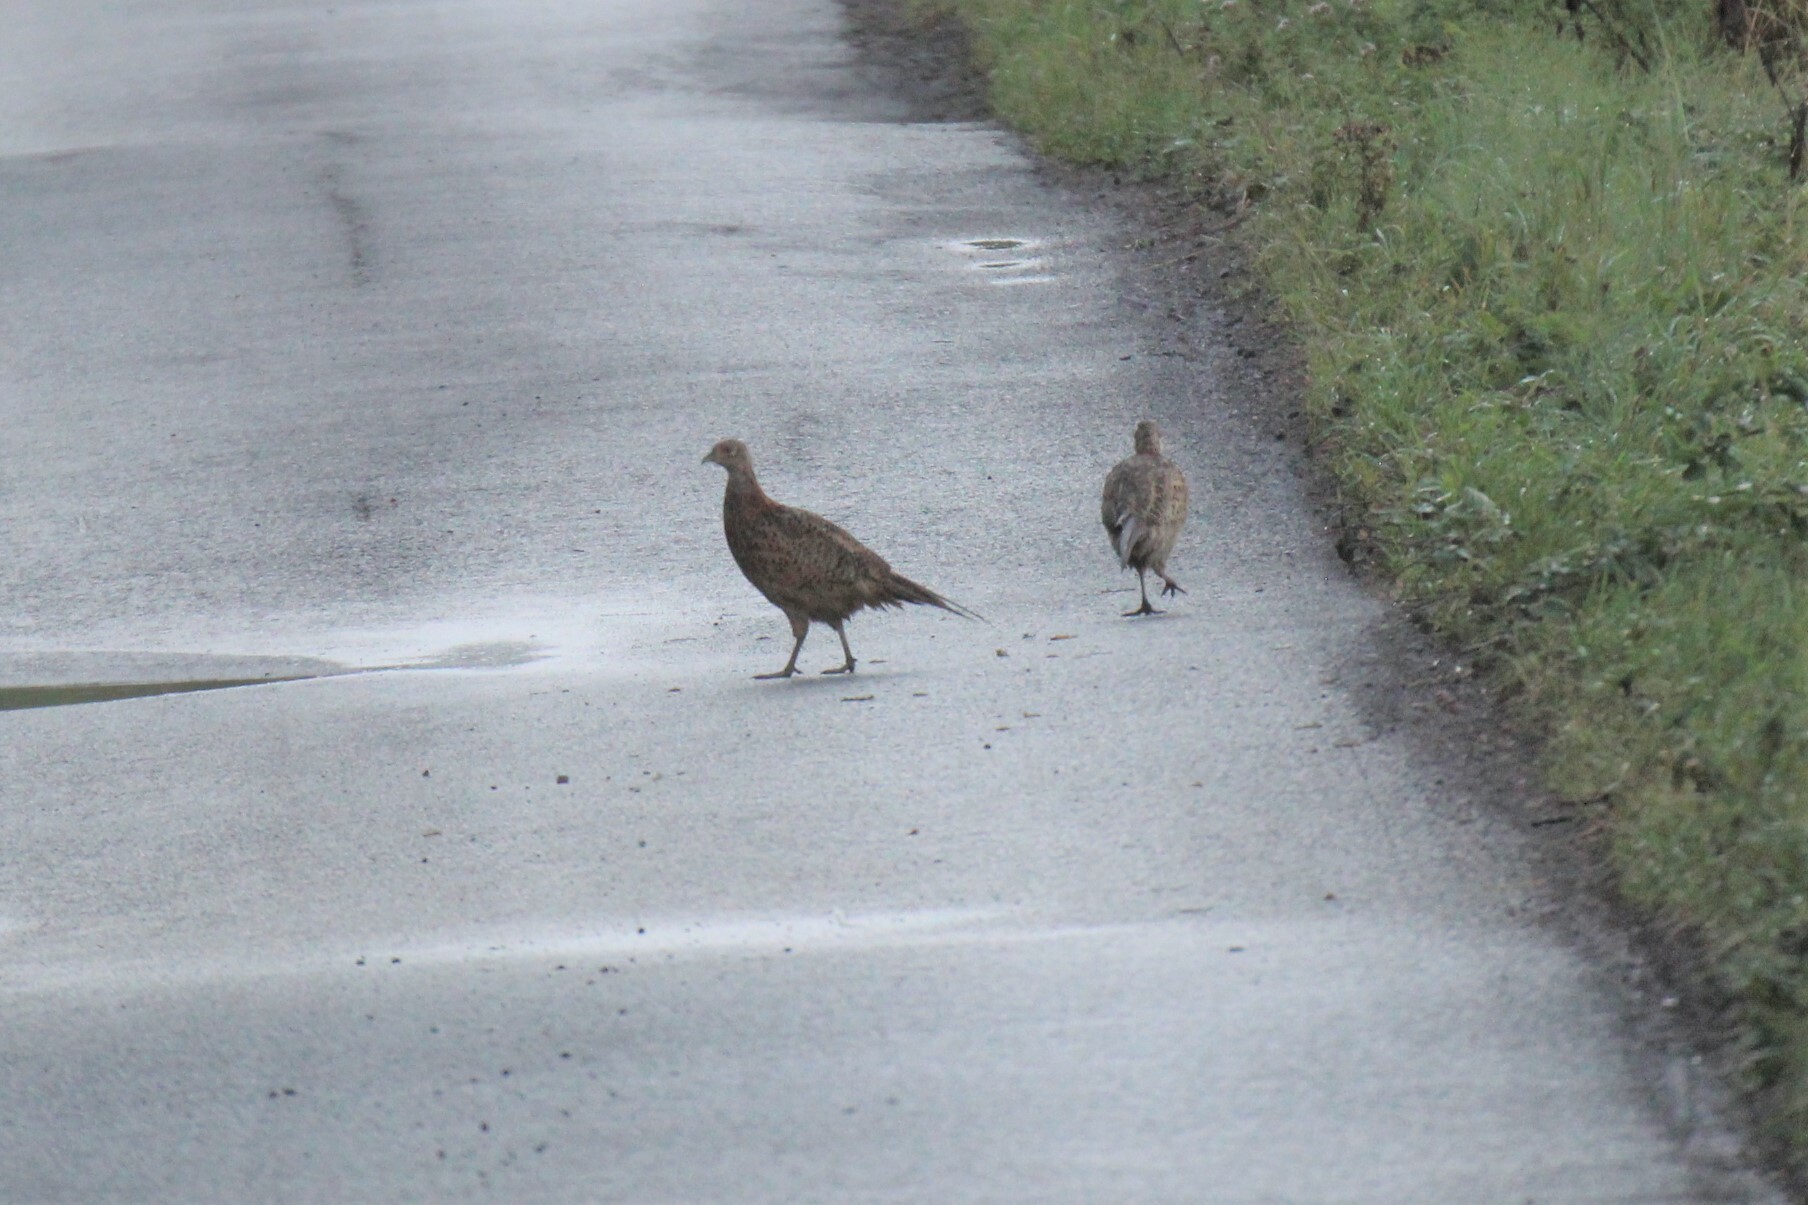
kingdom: Animalia
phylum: Chordata
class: Aves
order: Galliformes
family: Phasianidae
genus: Phasianus
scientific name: Phasianus colchicus
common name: Common pheasant
